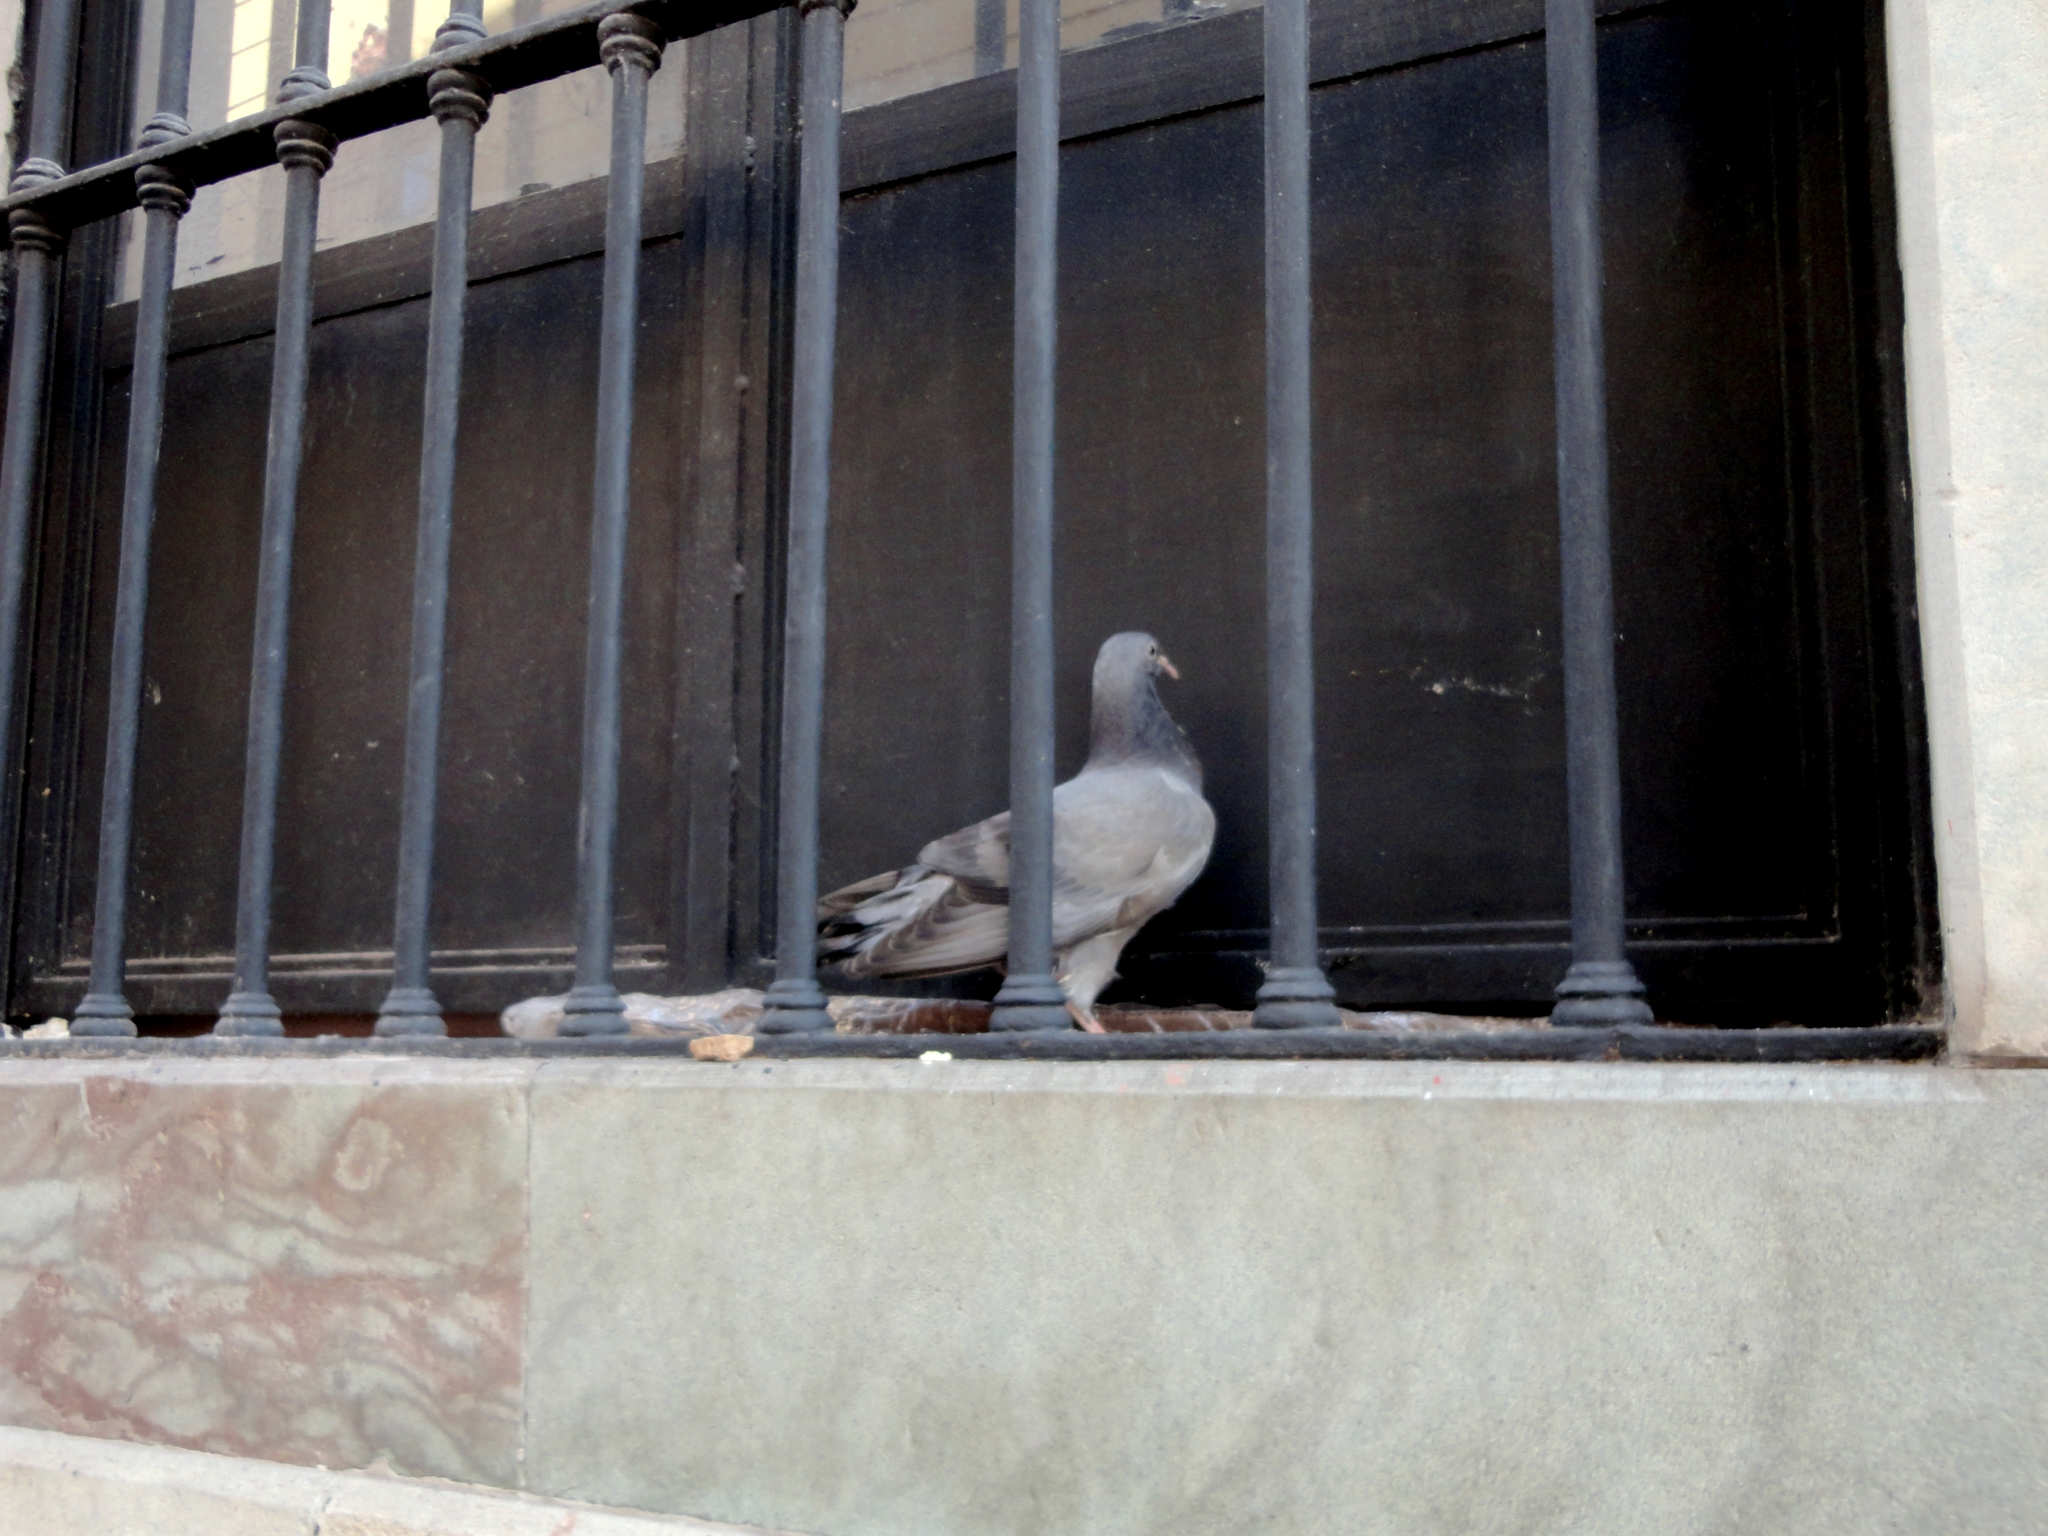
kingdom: Animalia
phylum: Chordata
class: Aves
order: Columbiformes
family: Columbidae
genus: Columba
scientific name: Columba livia
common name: Rock pigeon
